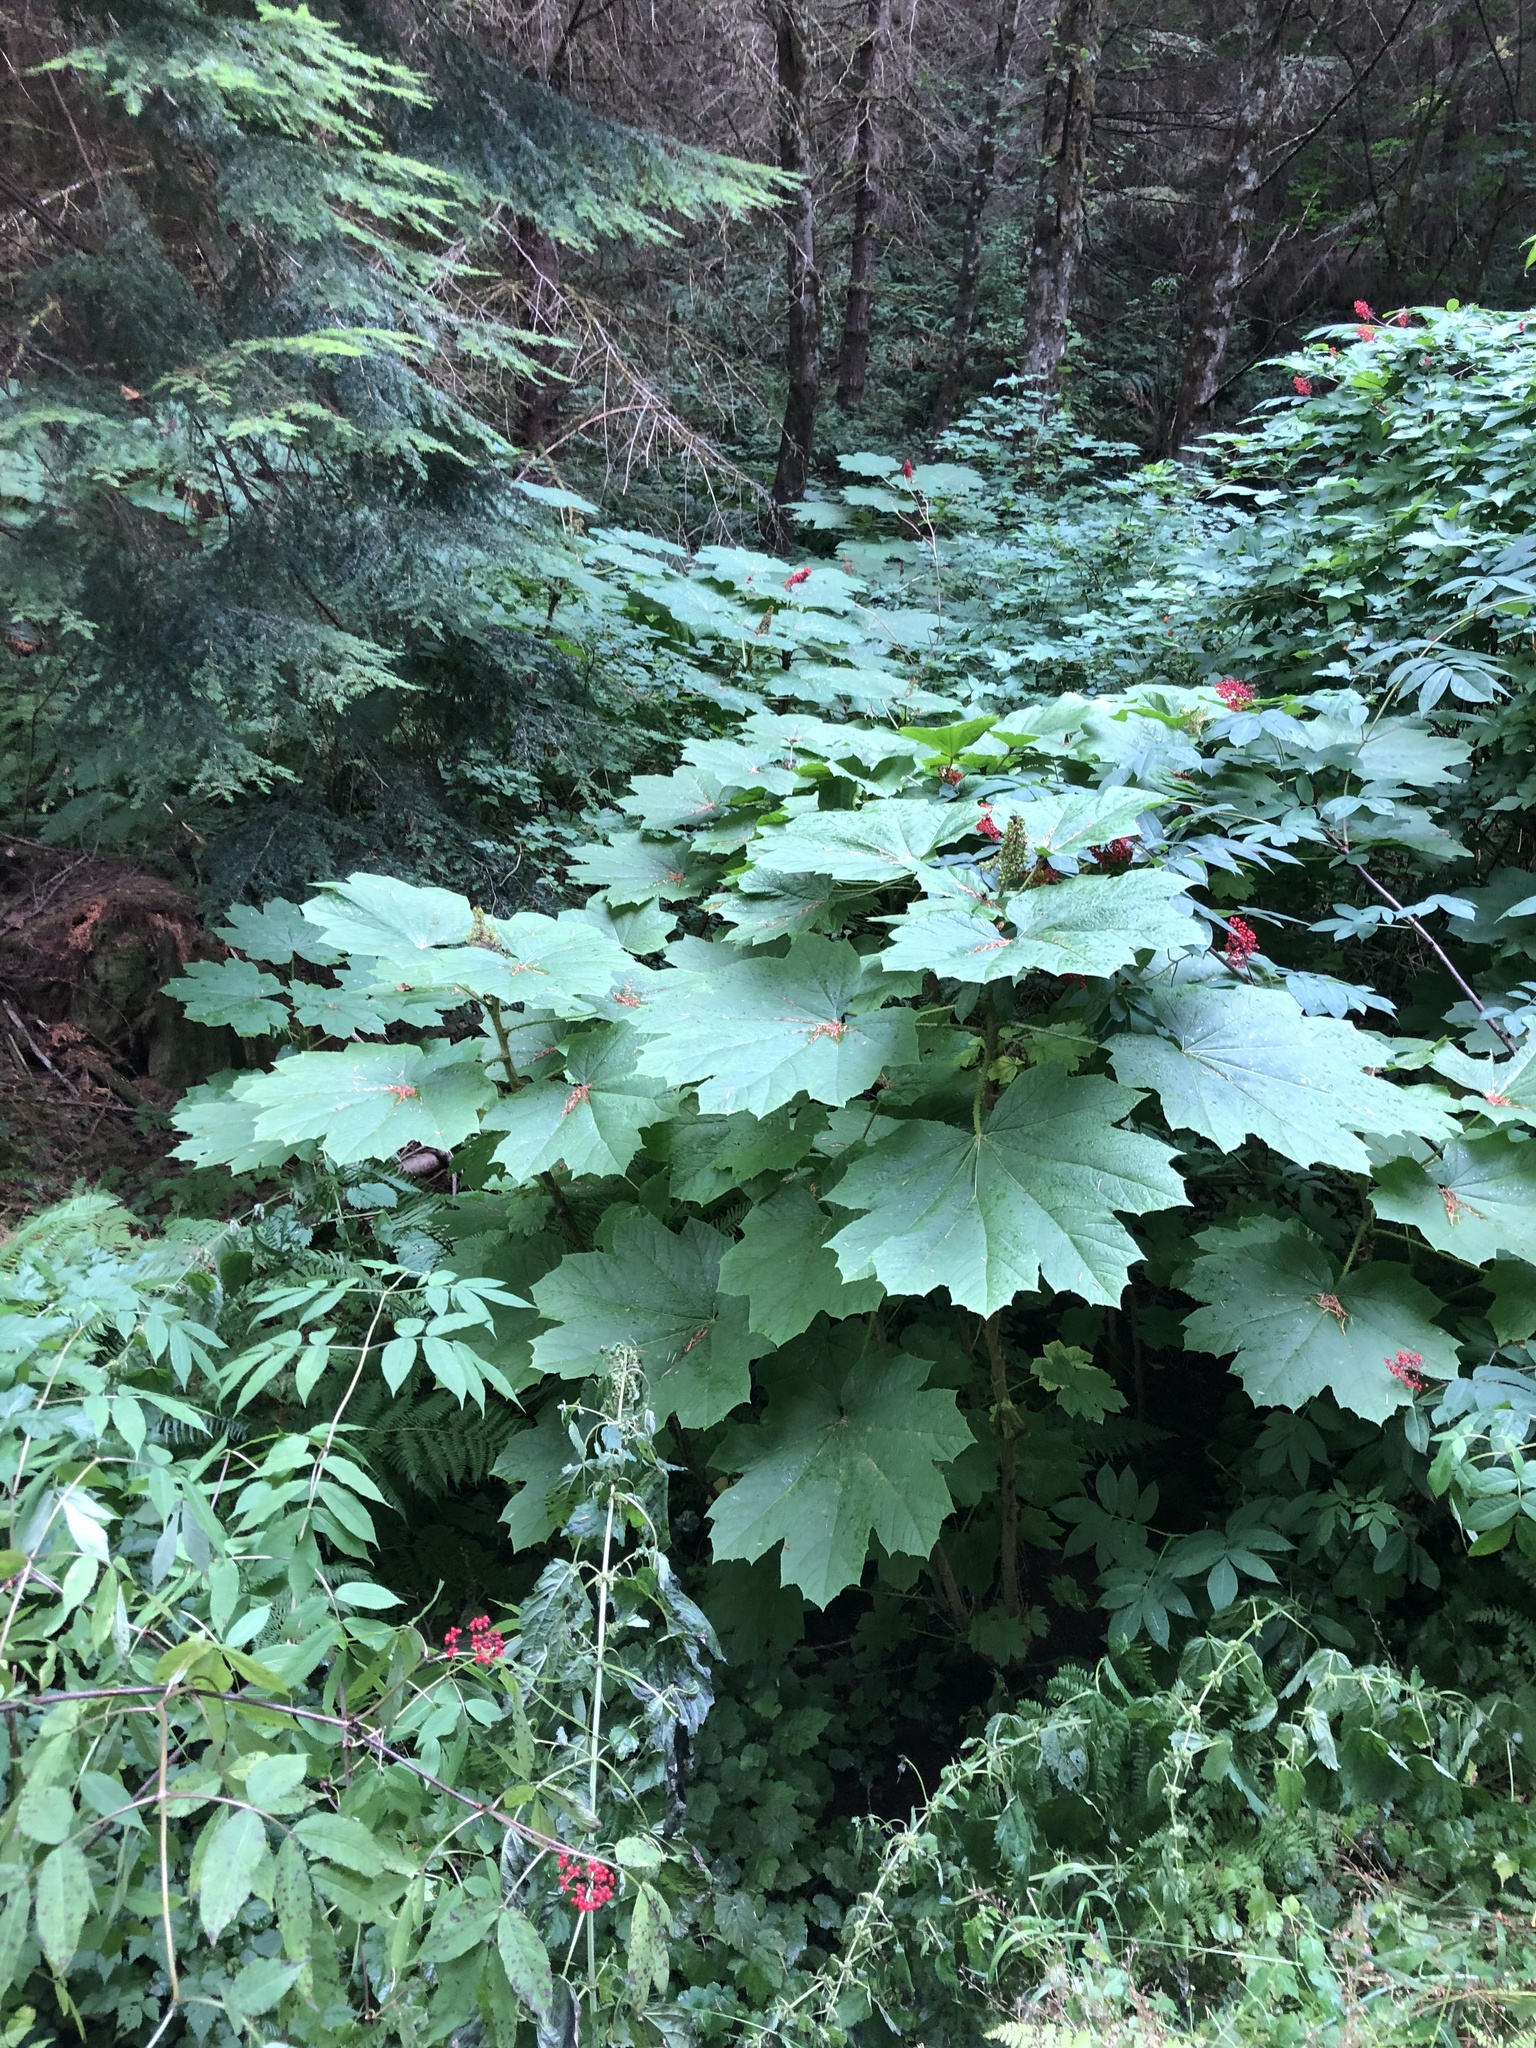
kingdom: Plantae
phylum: Tracheophyta
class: Magnoliopsida
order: Apiales
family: Araliaceae
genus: Oplopanax
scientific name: Oplopanax horridus
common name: Devil's walking-stick
